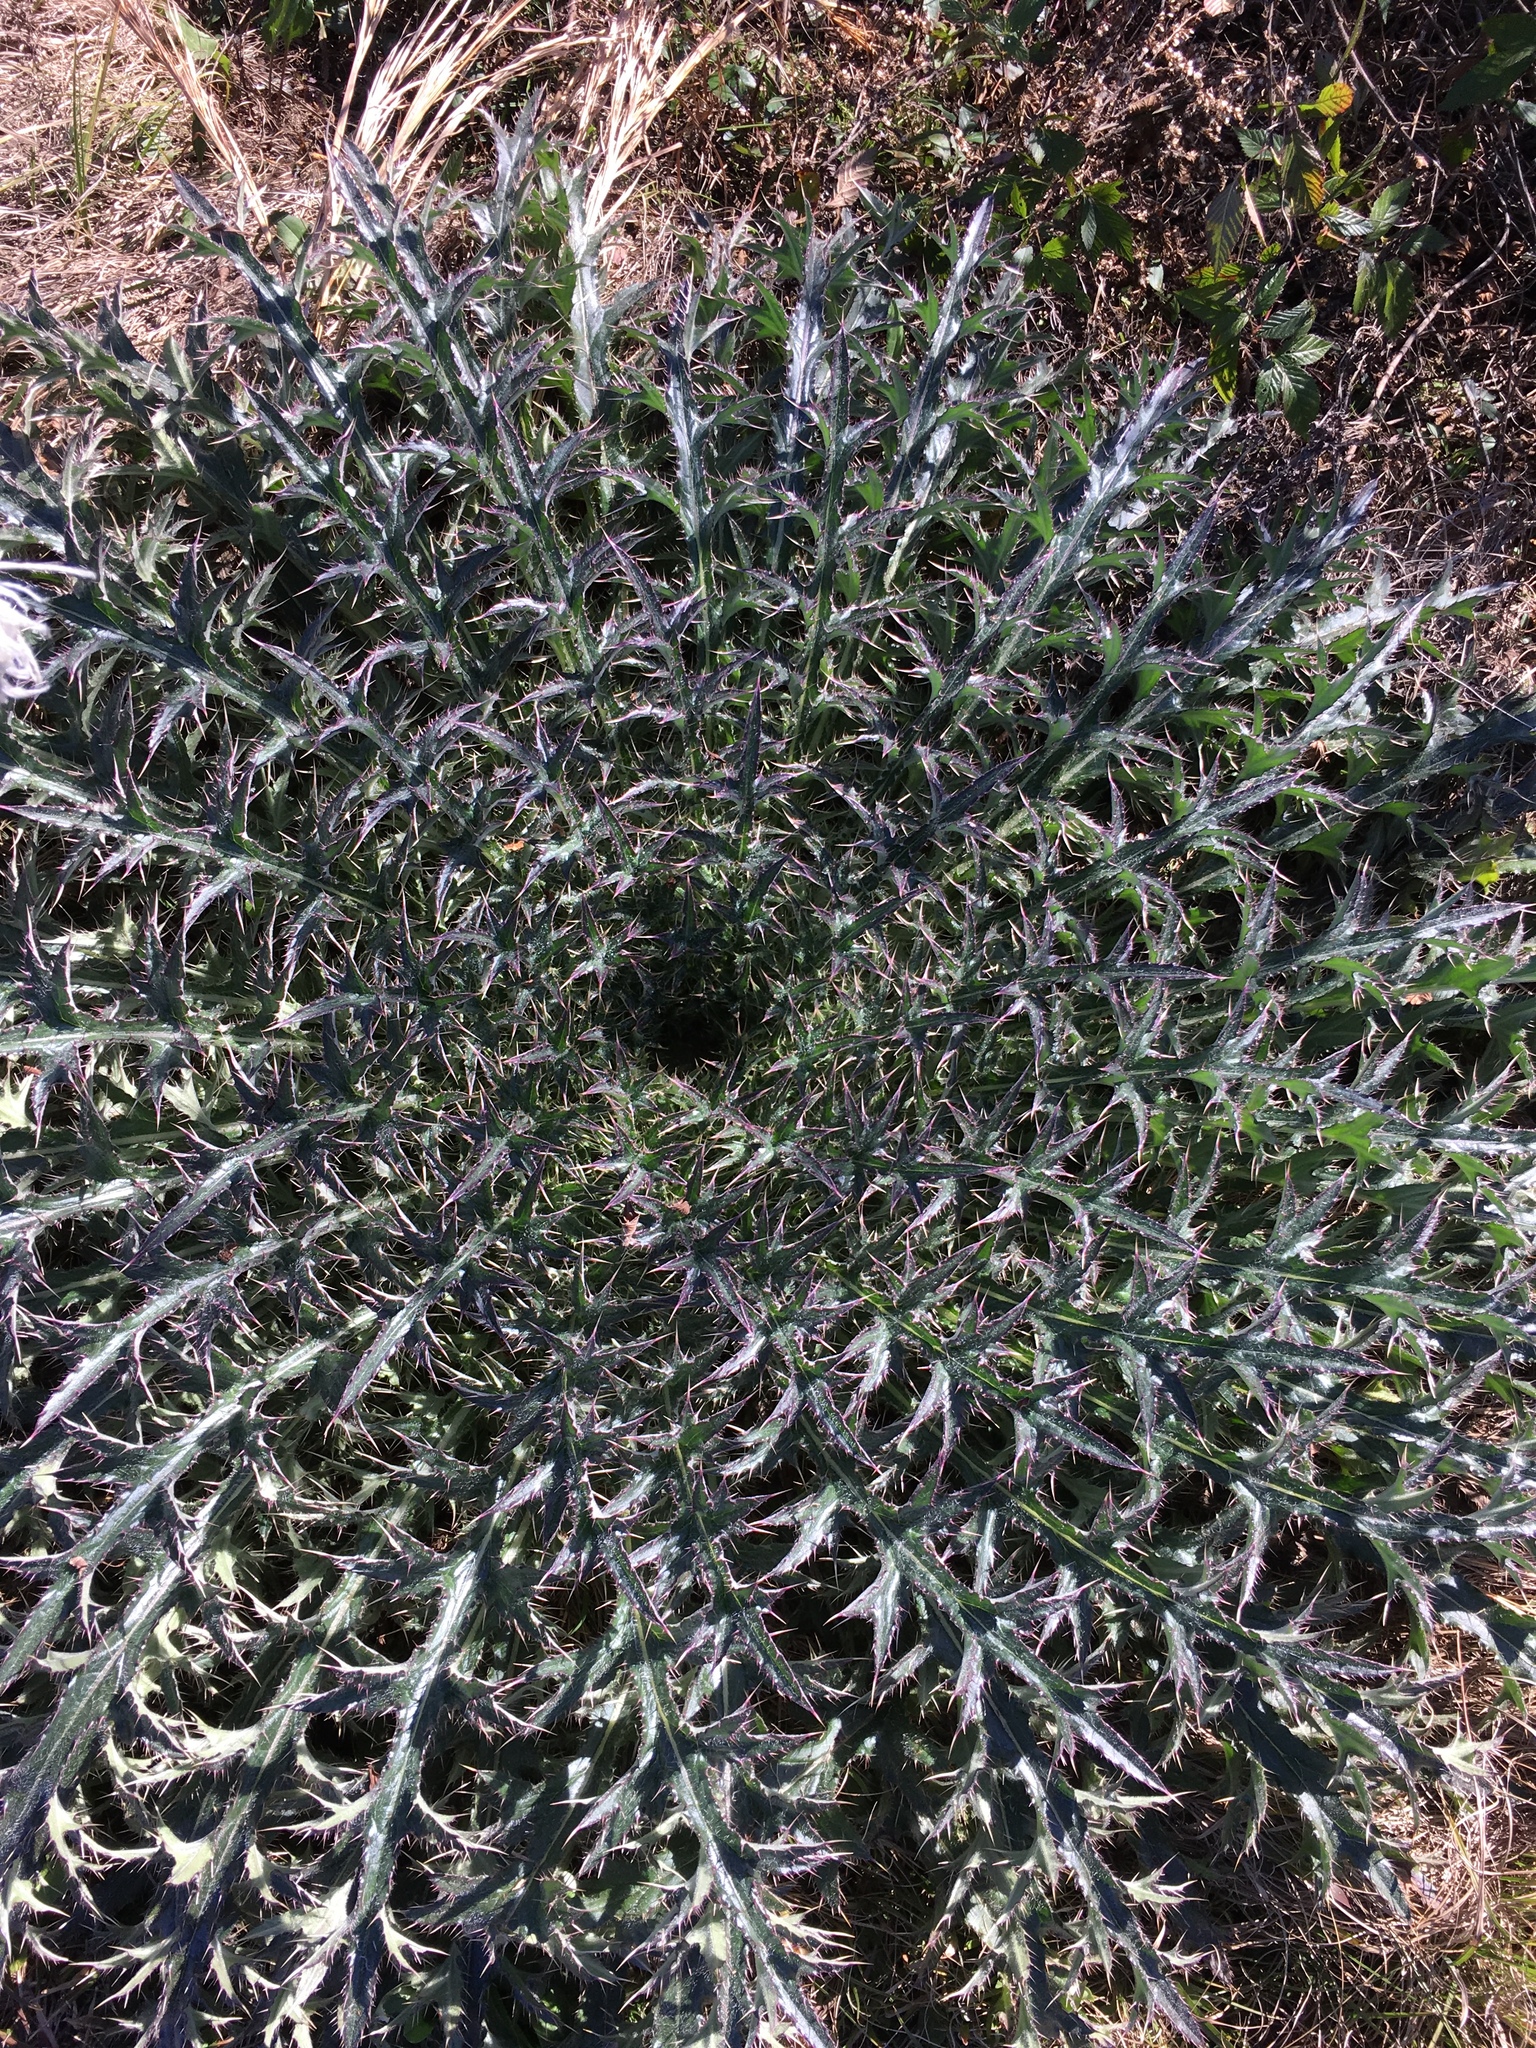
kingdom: Plantae
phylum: Tracheophyta
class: Magnoliopsida
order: Asterales
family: Asteraceae
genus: Cirsium
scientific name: Cirsium horridulum
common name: Bristly thistle
